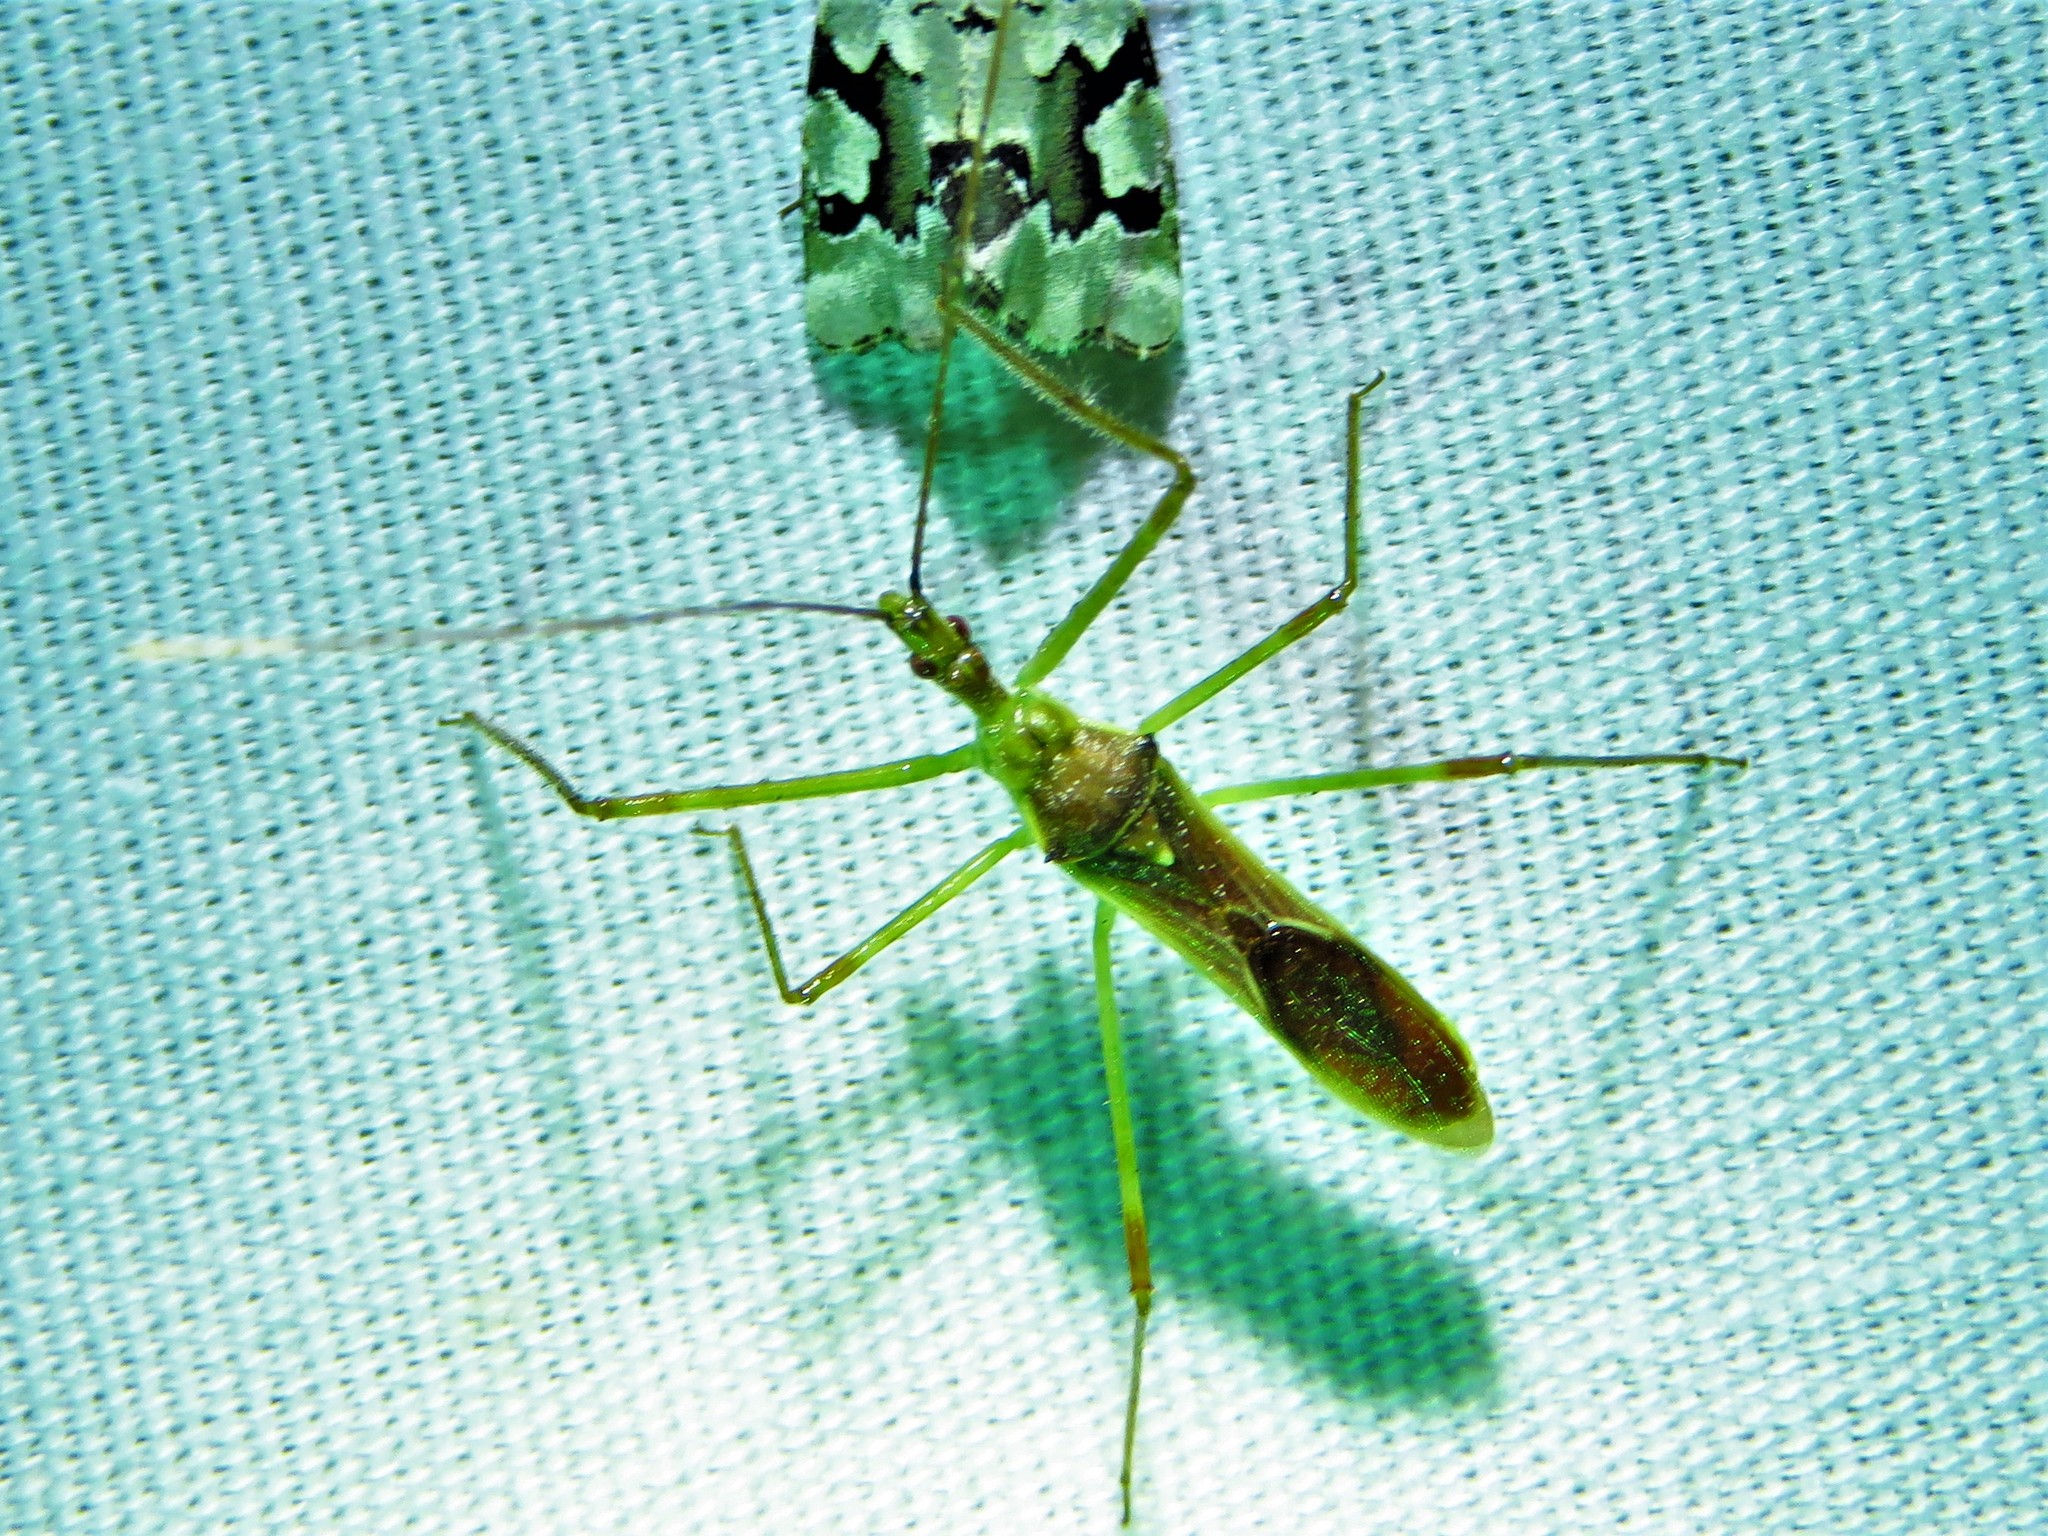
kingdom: Animalia
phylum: Arthropoda
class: Insecta
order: Hemiptera
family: Reduviidae
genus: Zelus
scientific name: Zelus luridus
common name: Pale green assassin bug
